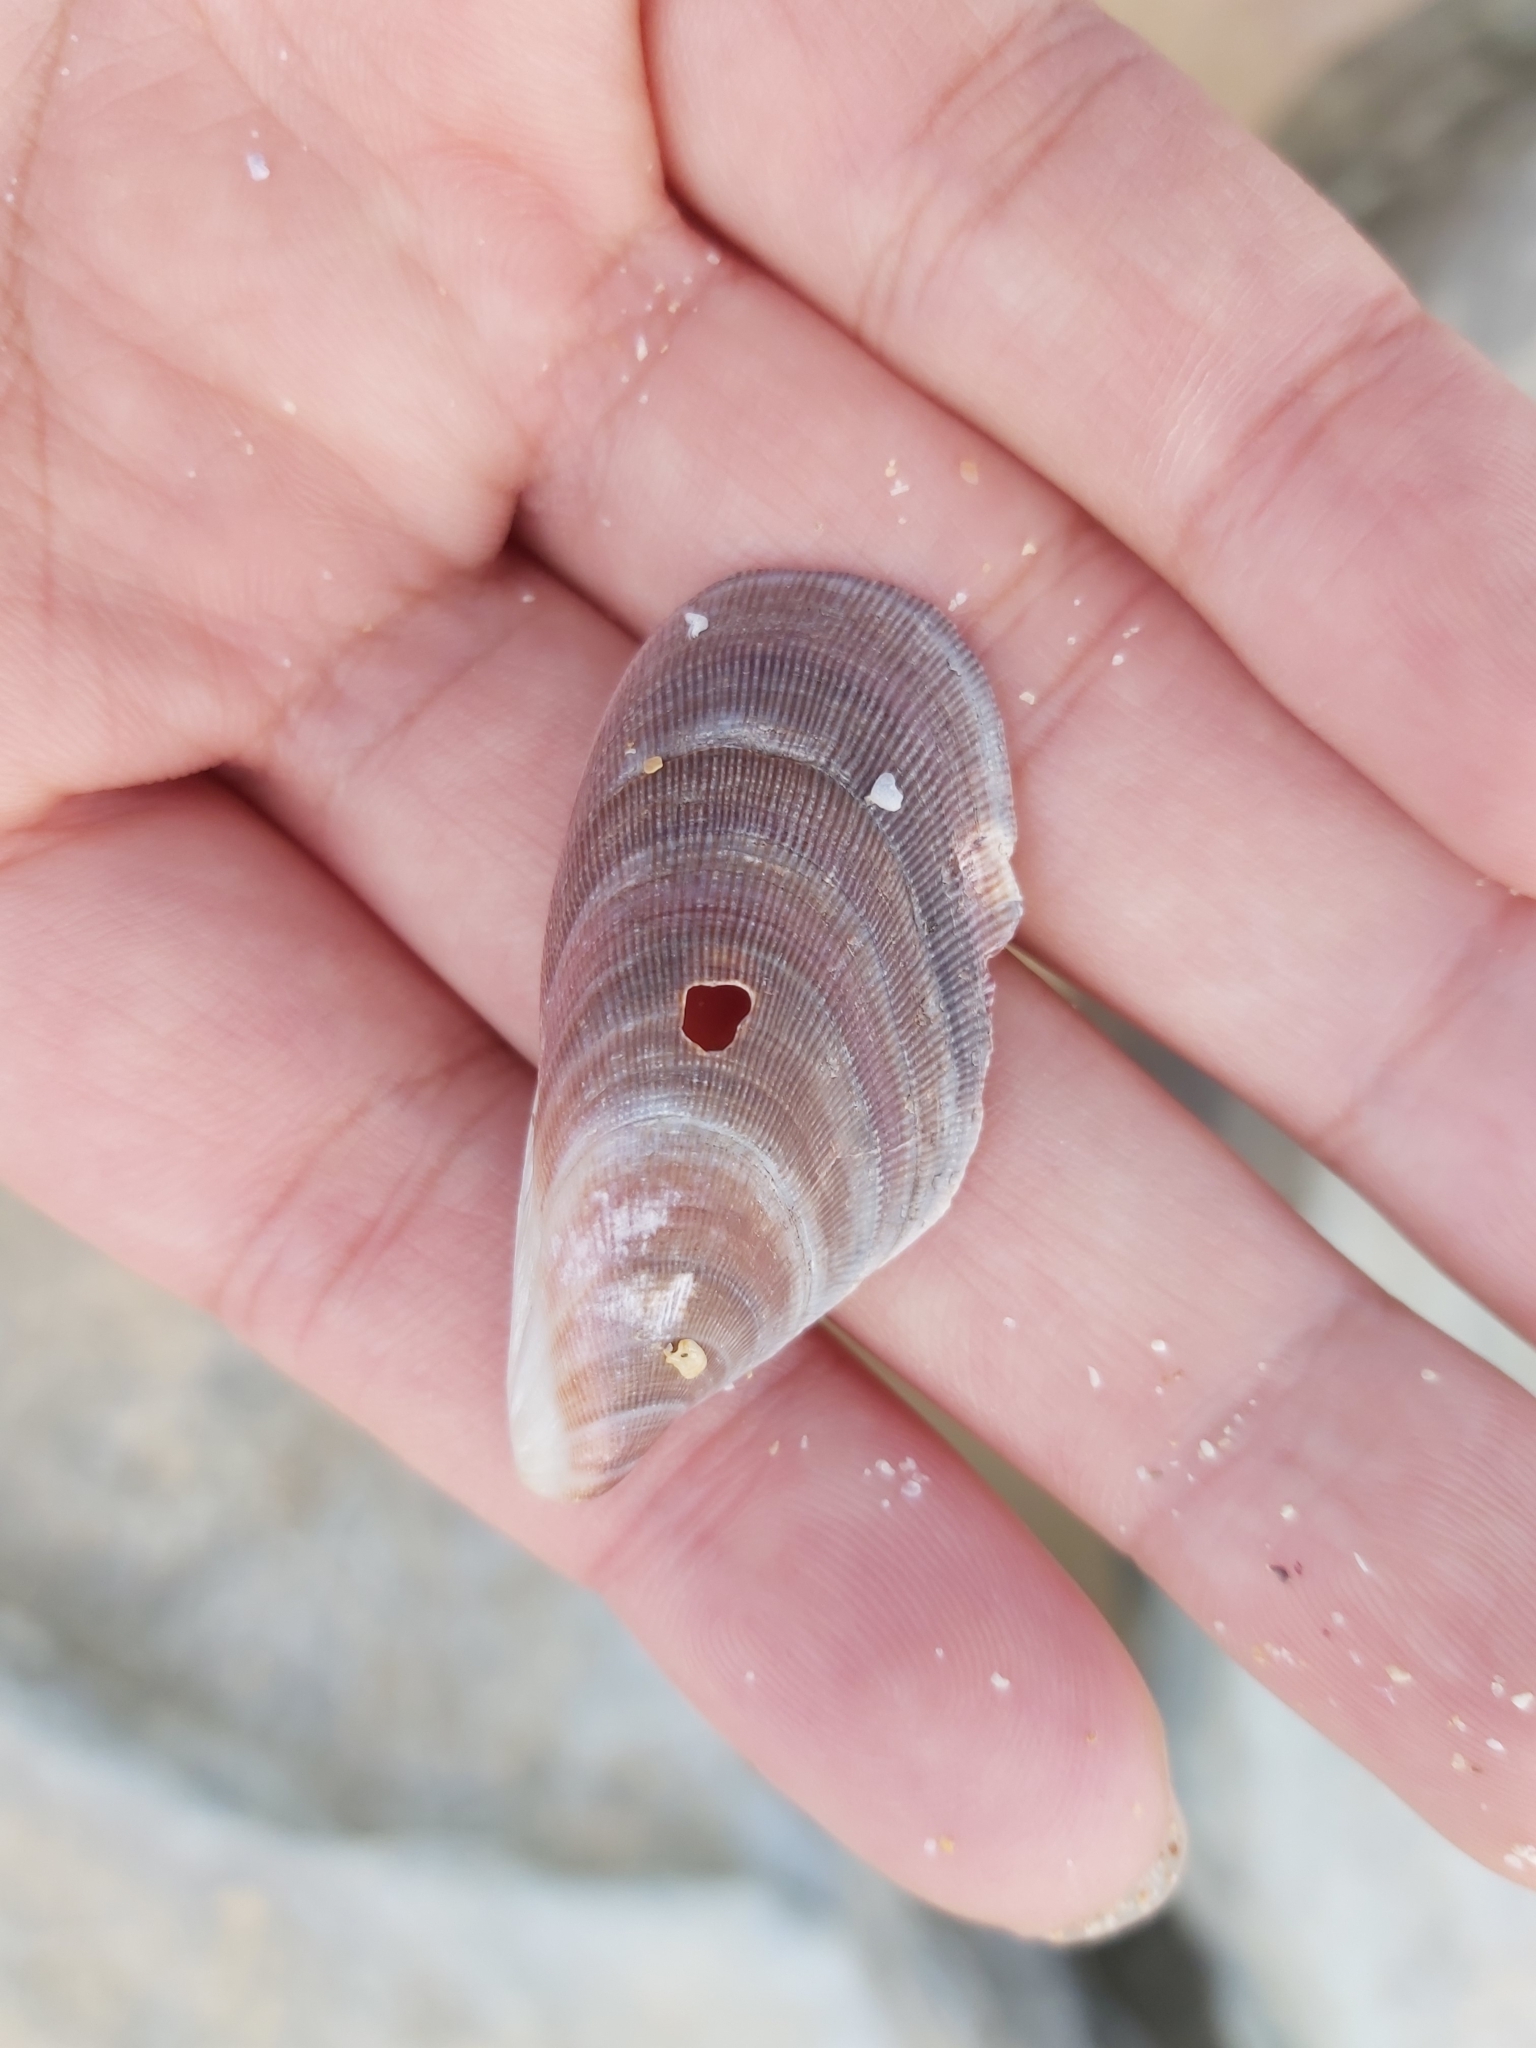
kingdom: Animalia
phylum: Mollusca
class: Bivalvia
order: Mytilida
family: Mytilidae
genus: Trichomya
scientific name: Trichomya hirsuta
